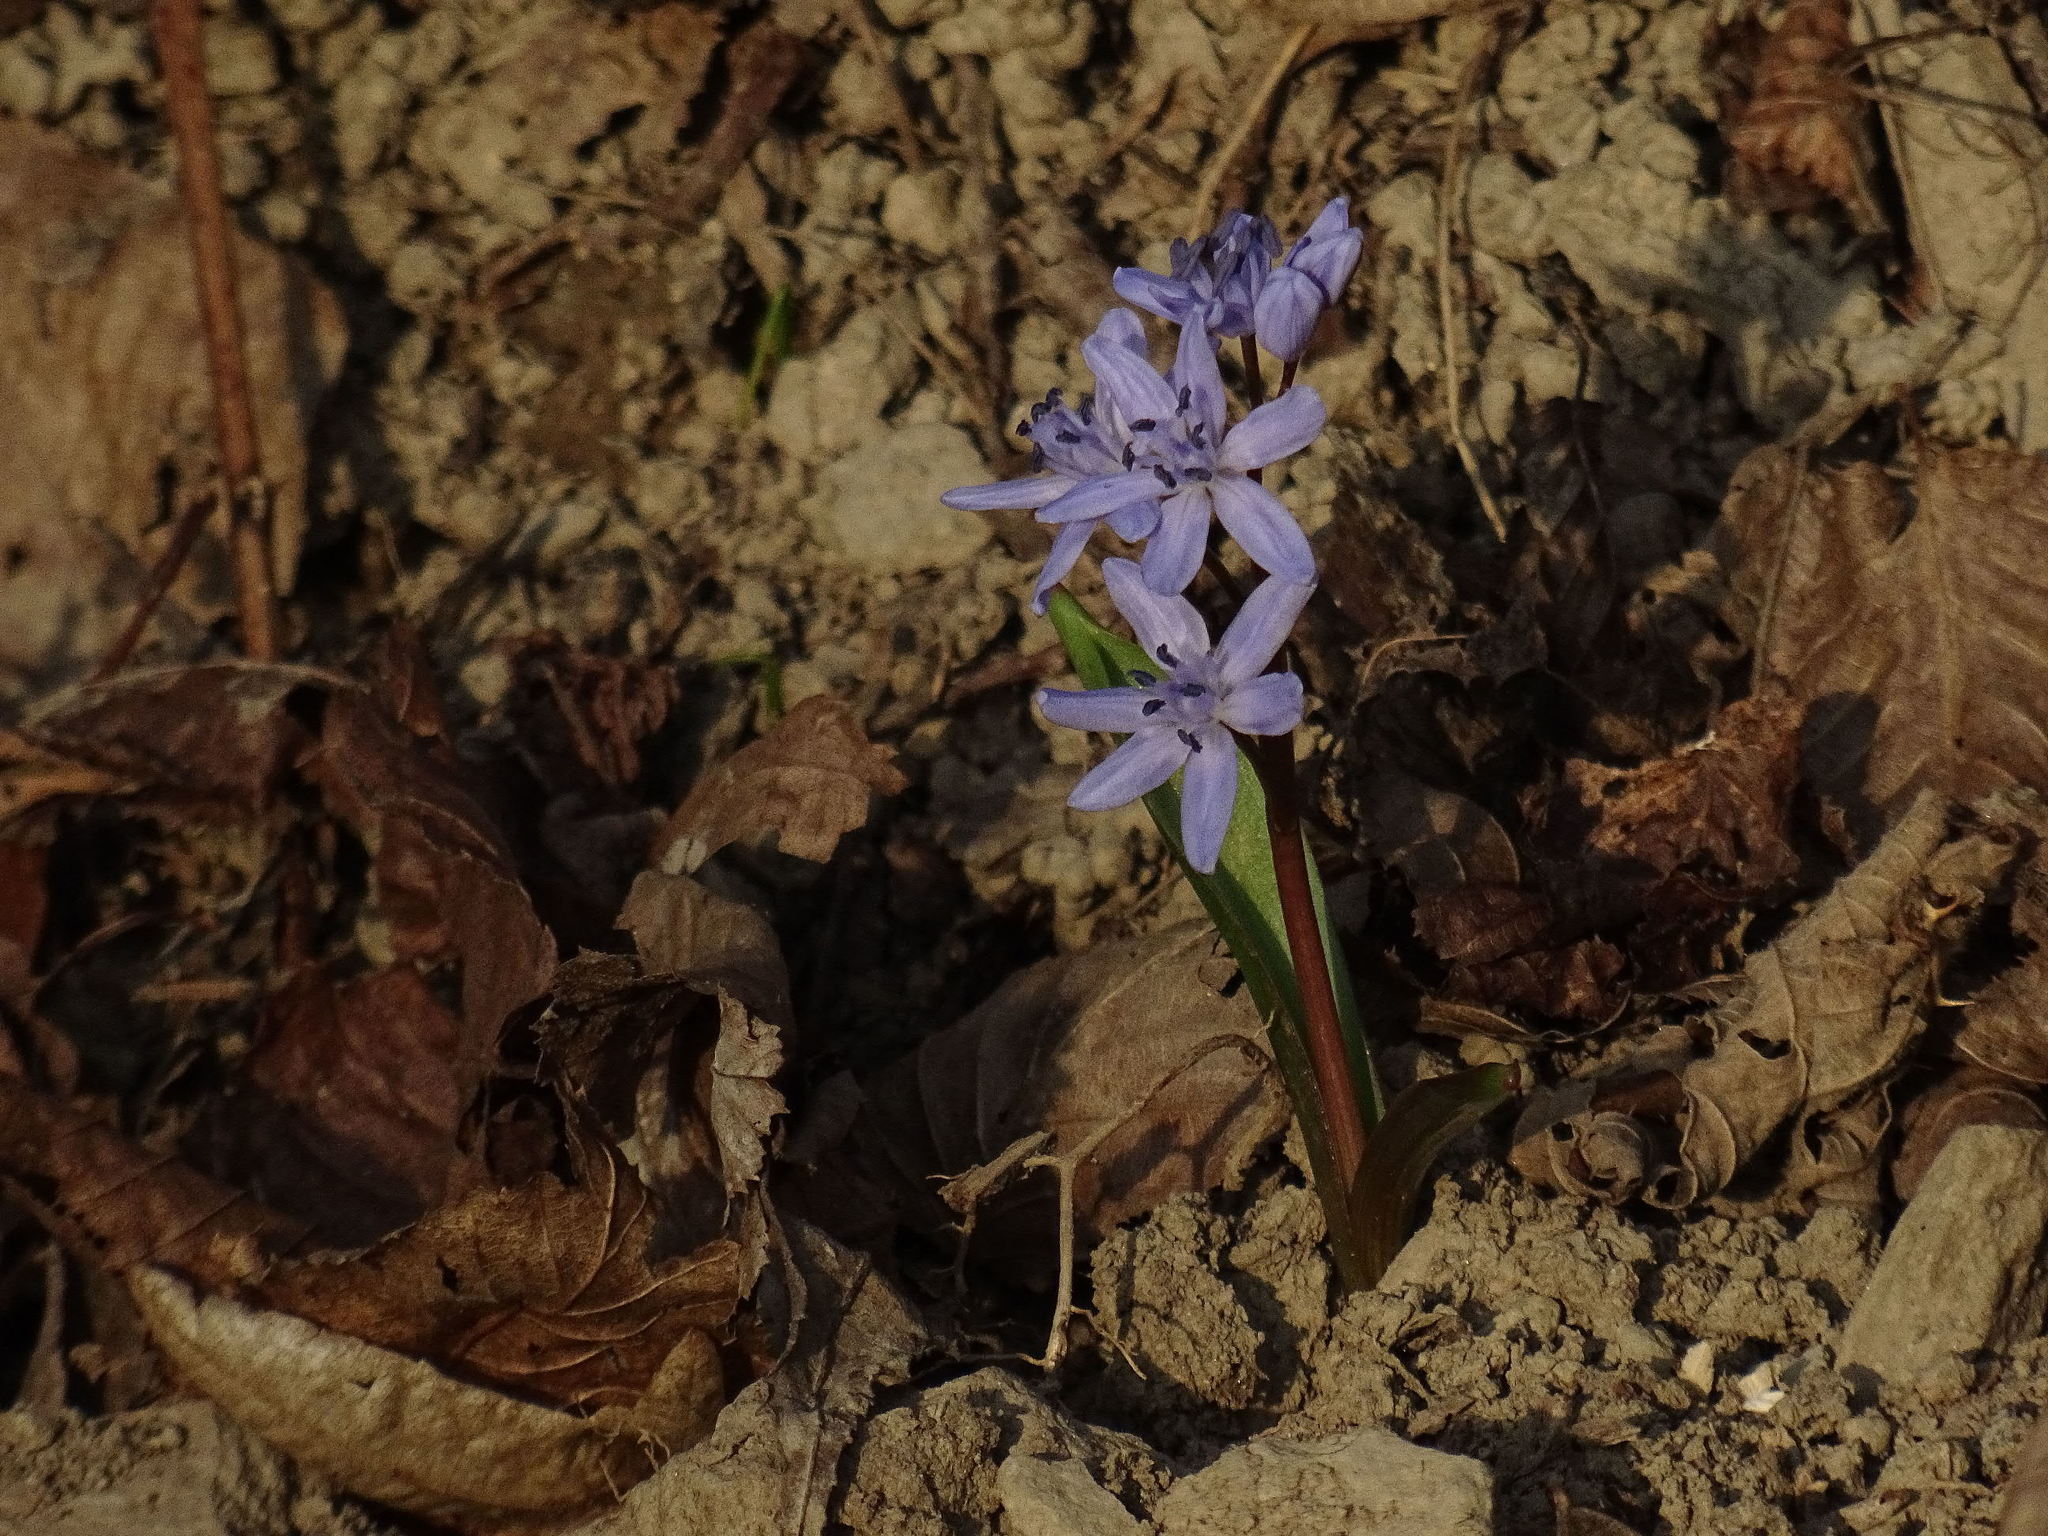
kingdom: Plantae
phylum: Tracheophyta
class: Liliopsida
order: Asparagales
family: Asparagaceae
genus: Scilla
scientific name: Scilla bifolia
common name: Alpine squill
